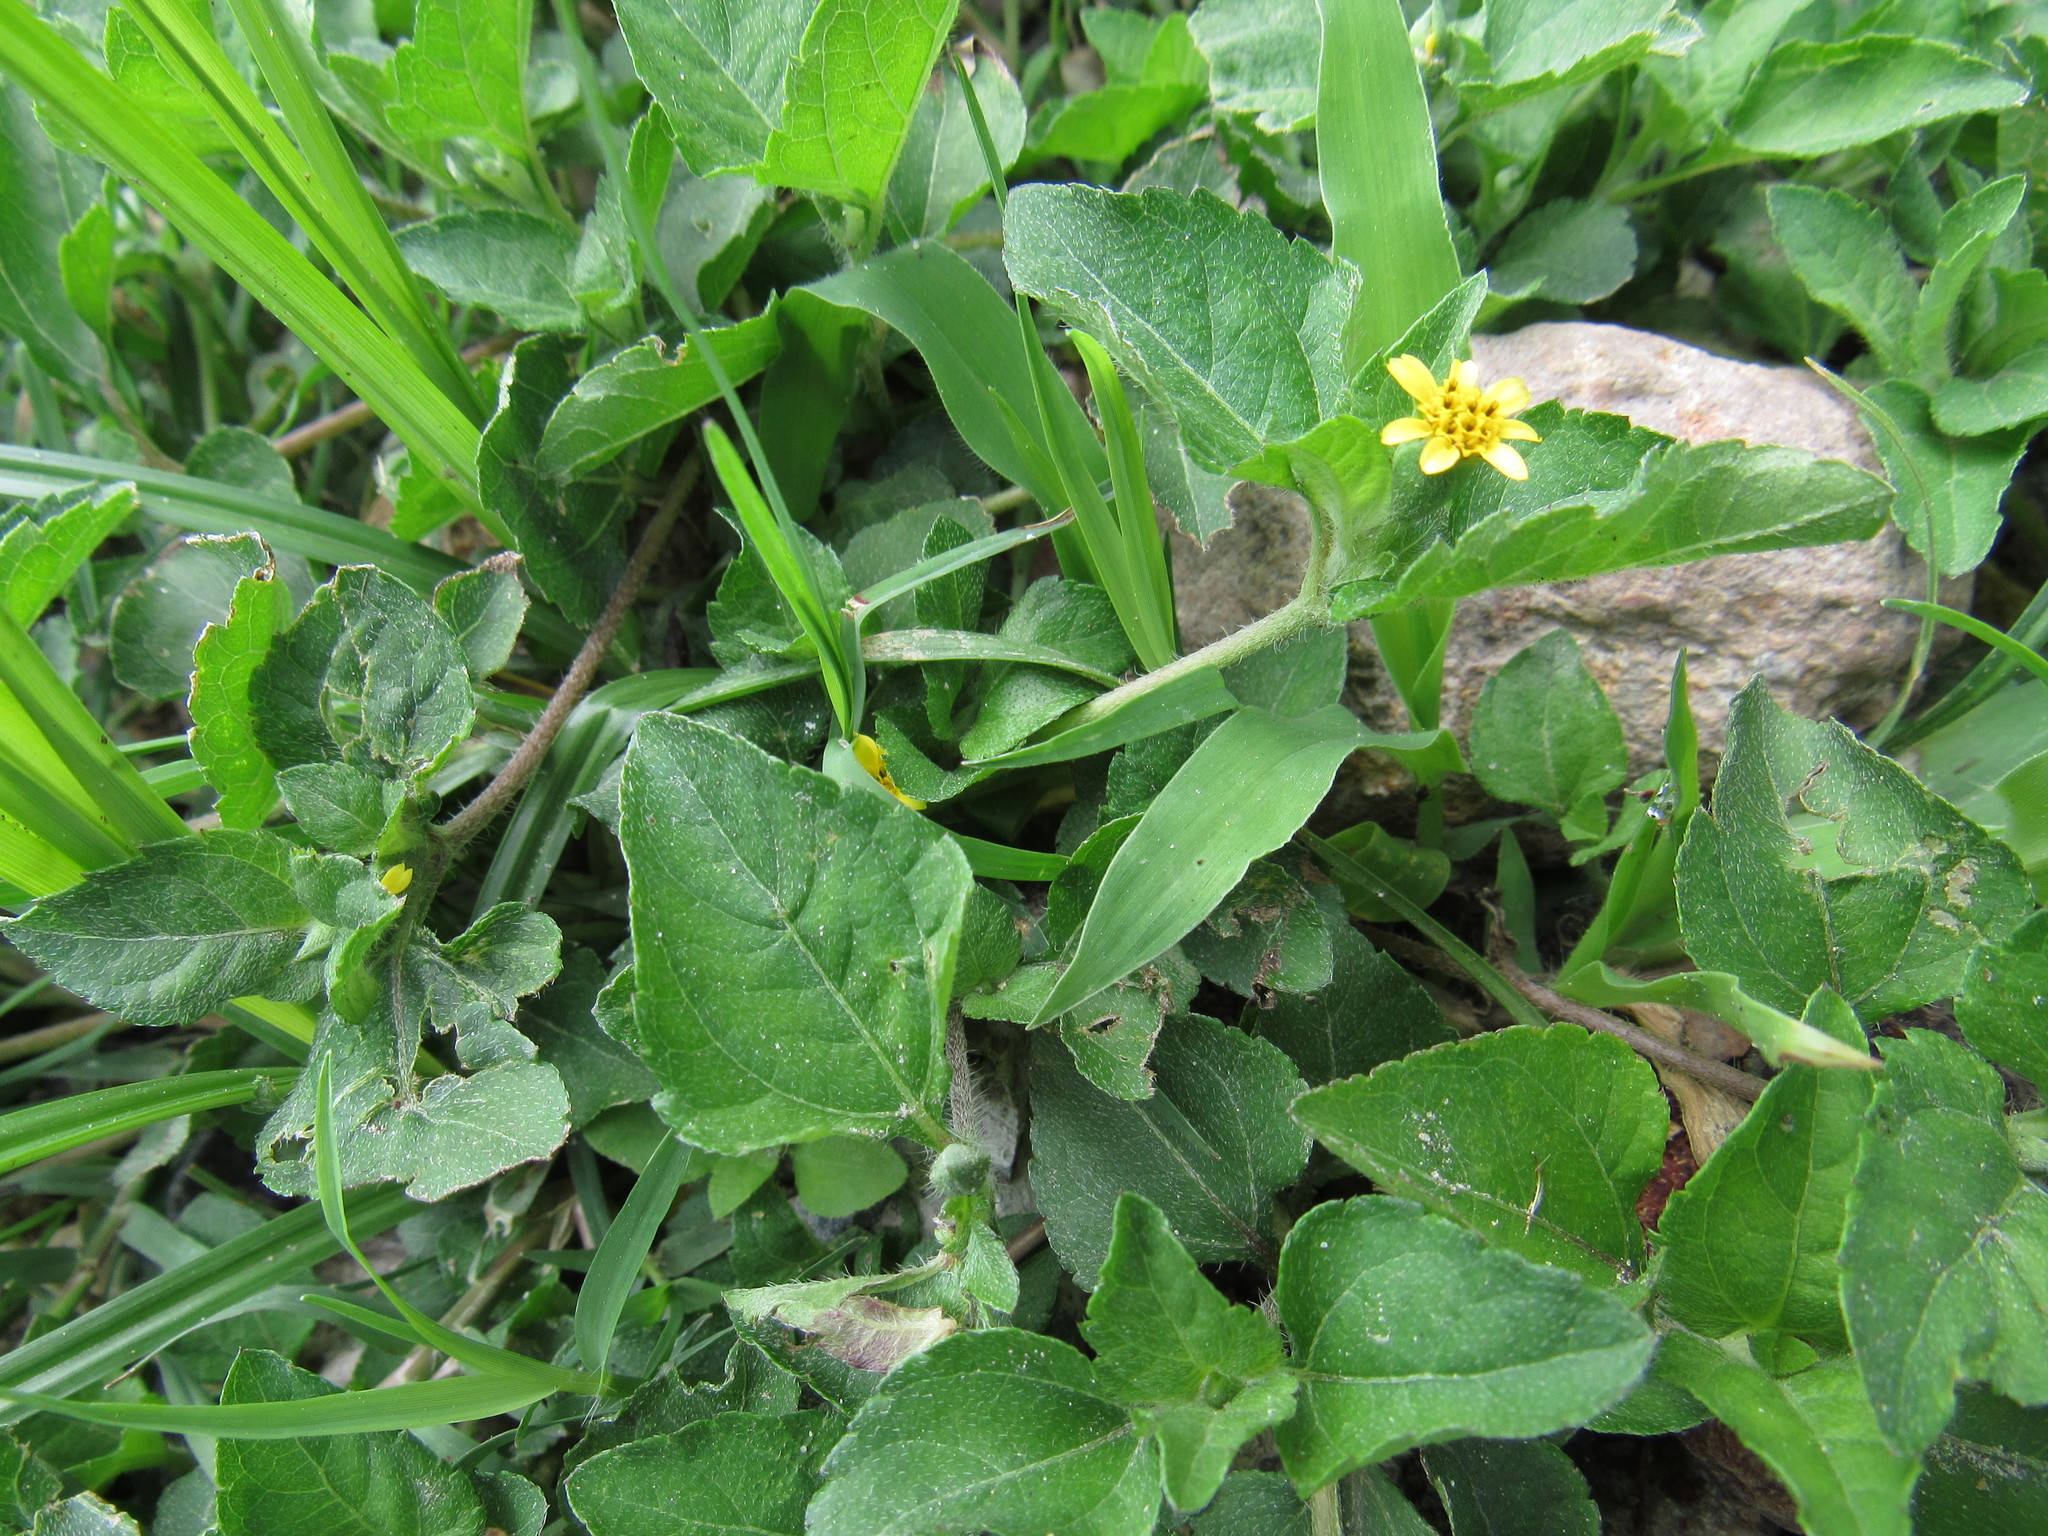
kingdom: Plantae
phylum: Tracheophyta
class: Magnoliopsida
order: Asterales
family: Asteraceae
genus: Calyptocarpus
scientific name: Calyptocarpus vialis
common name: Straggler daisy
